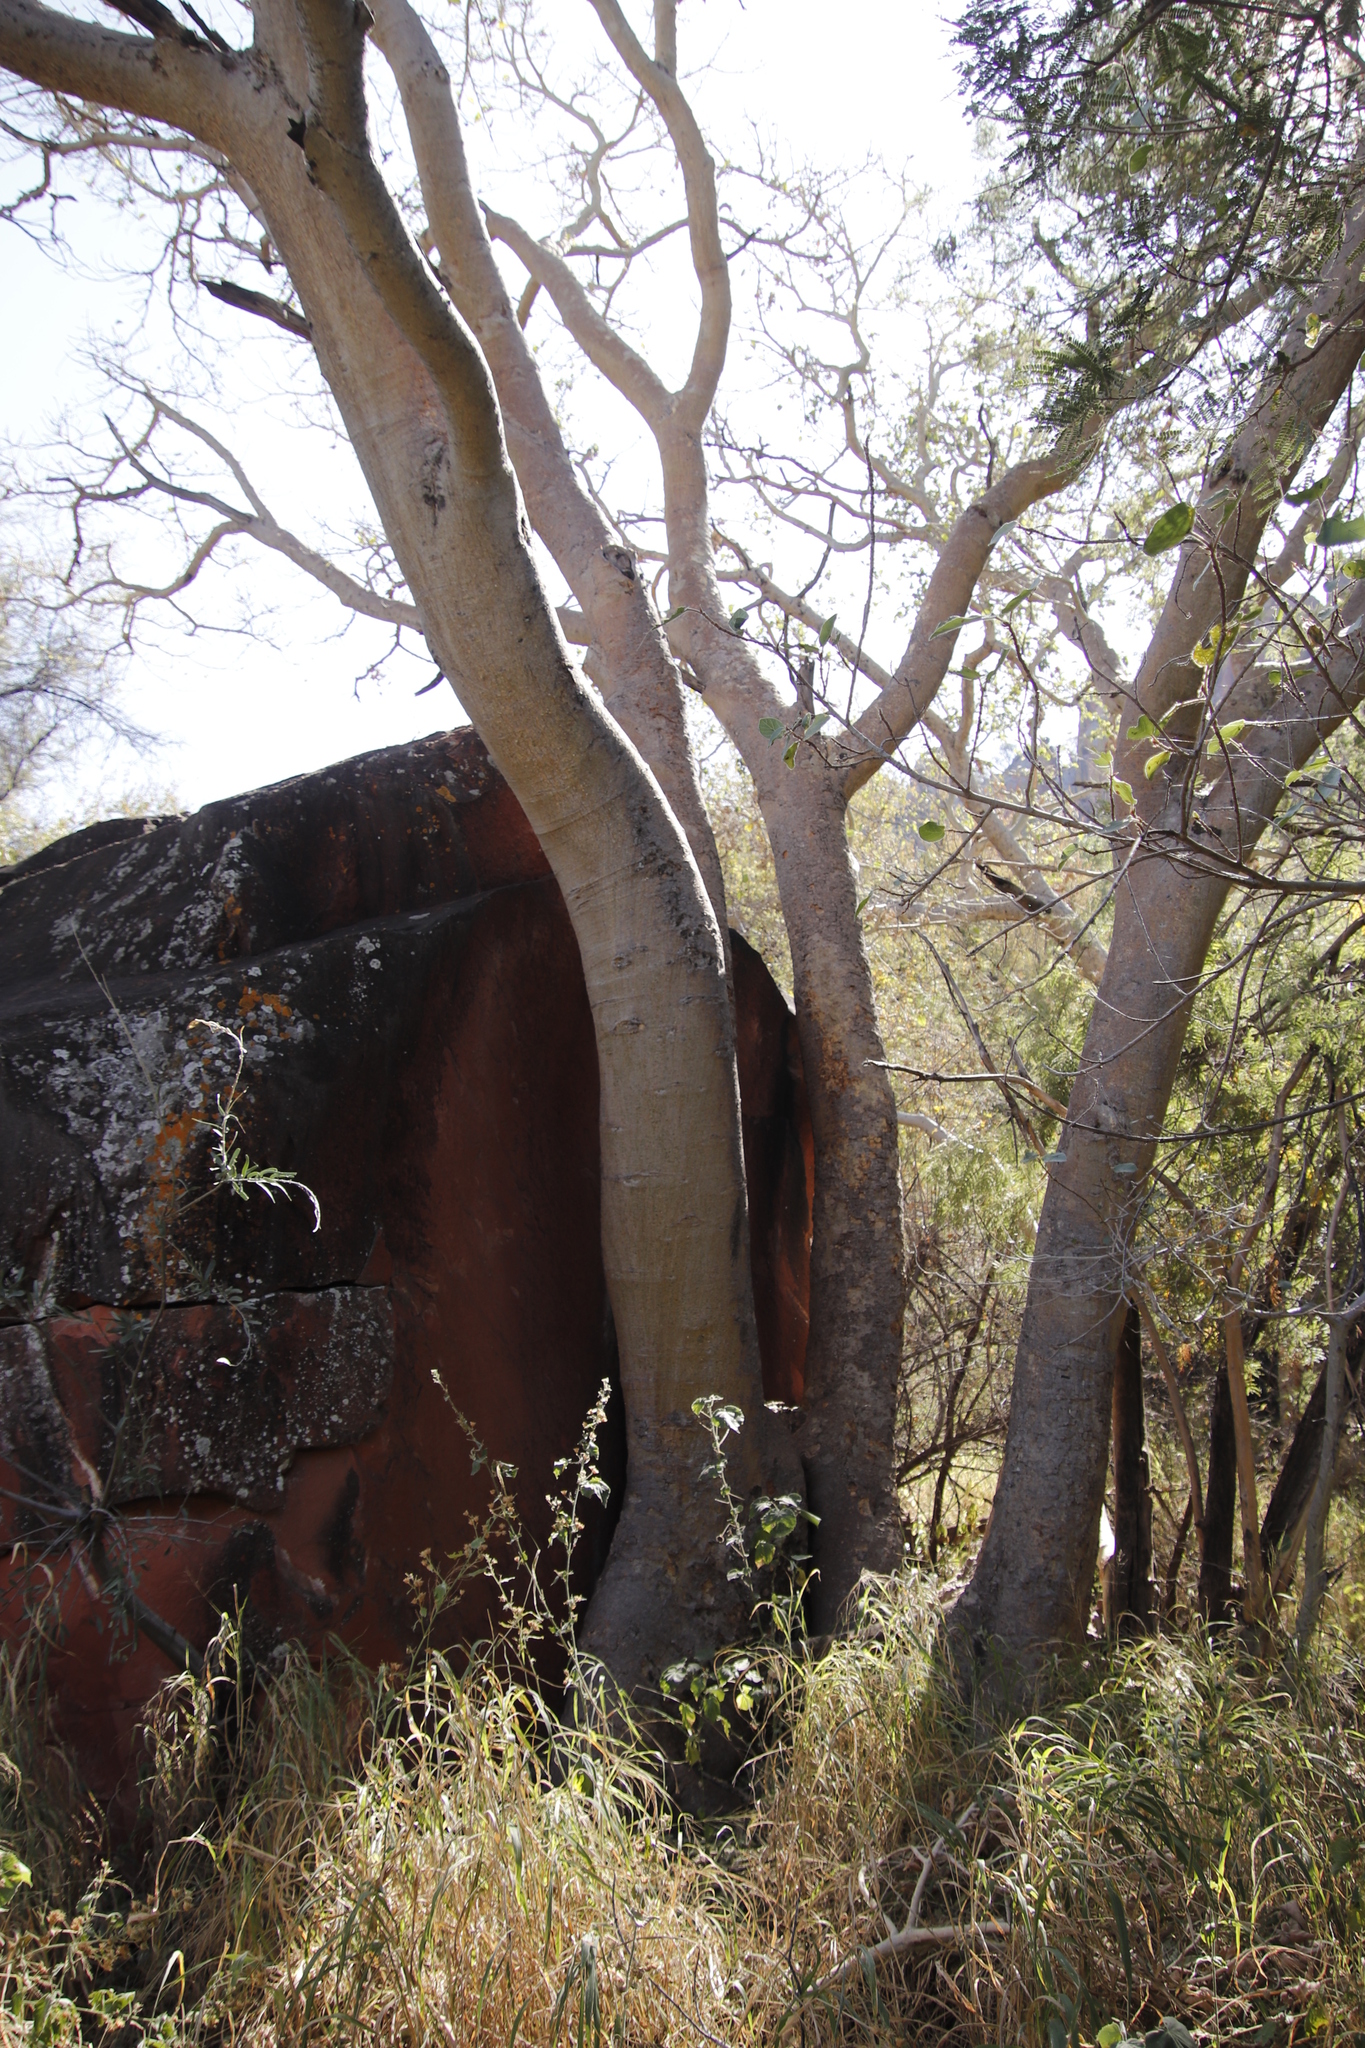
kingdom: Plantae
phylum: Tracheophyta
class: Magnoliopsida
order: Rosales
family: Moraceae
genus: Ficus
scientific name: Ficus sycomorus
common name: Sycomore
